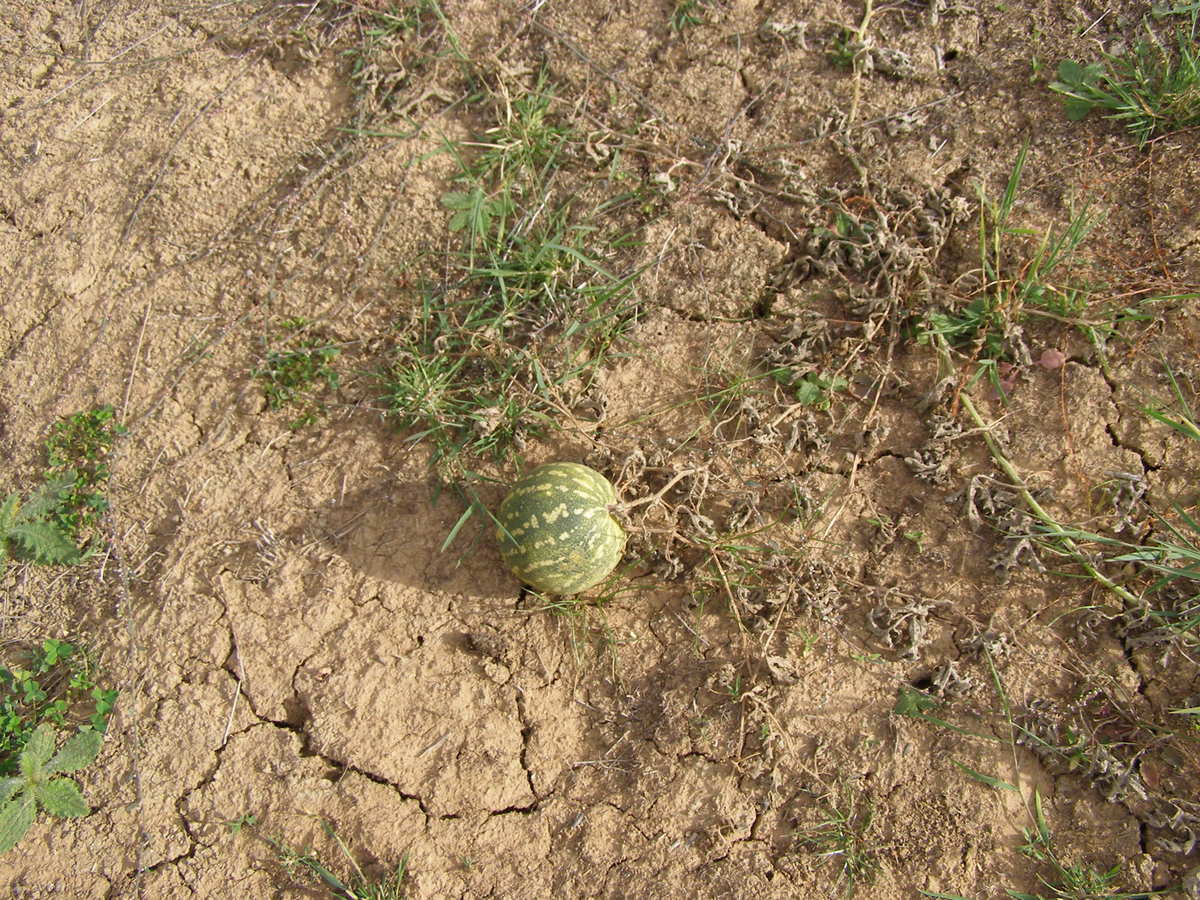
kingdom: Plantae
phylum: Tracheophyta
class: Magnoliopsida
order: Cucurbitales
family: Cucurbitaceae
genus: Citrullus
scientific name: Citrullus amarus
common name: Fodder-melon
